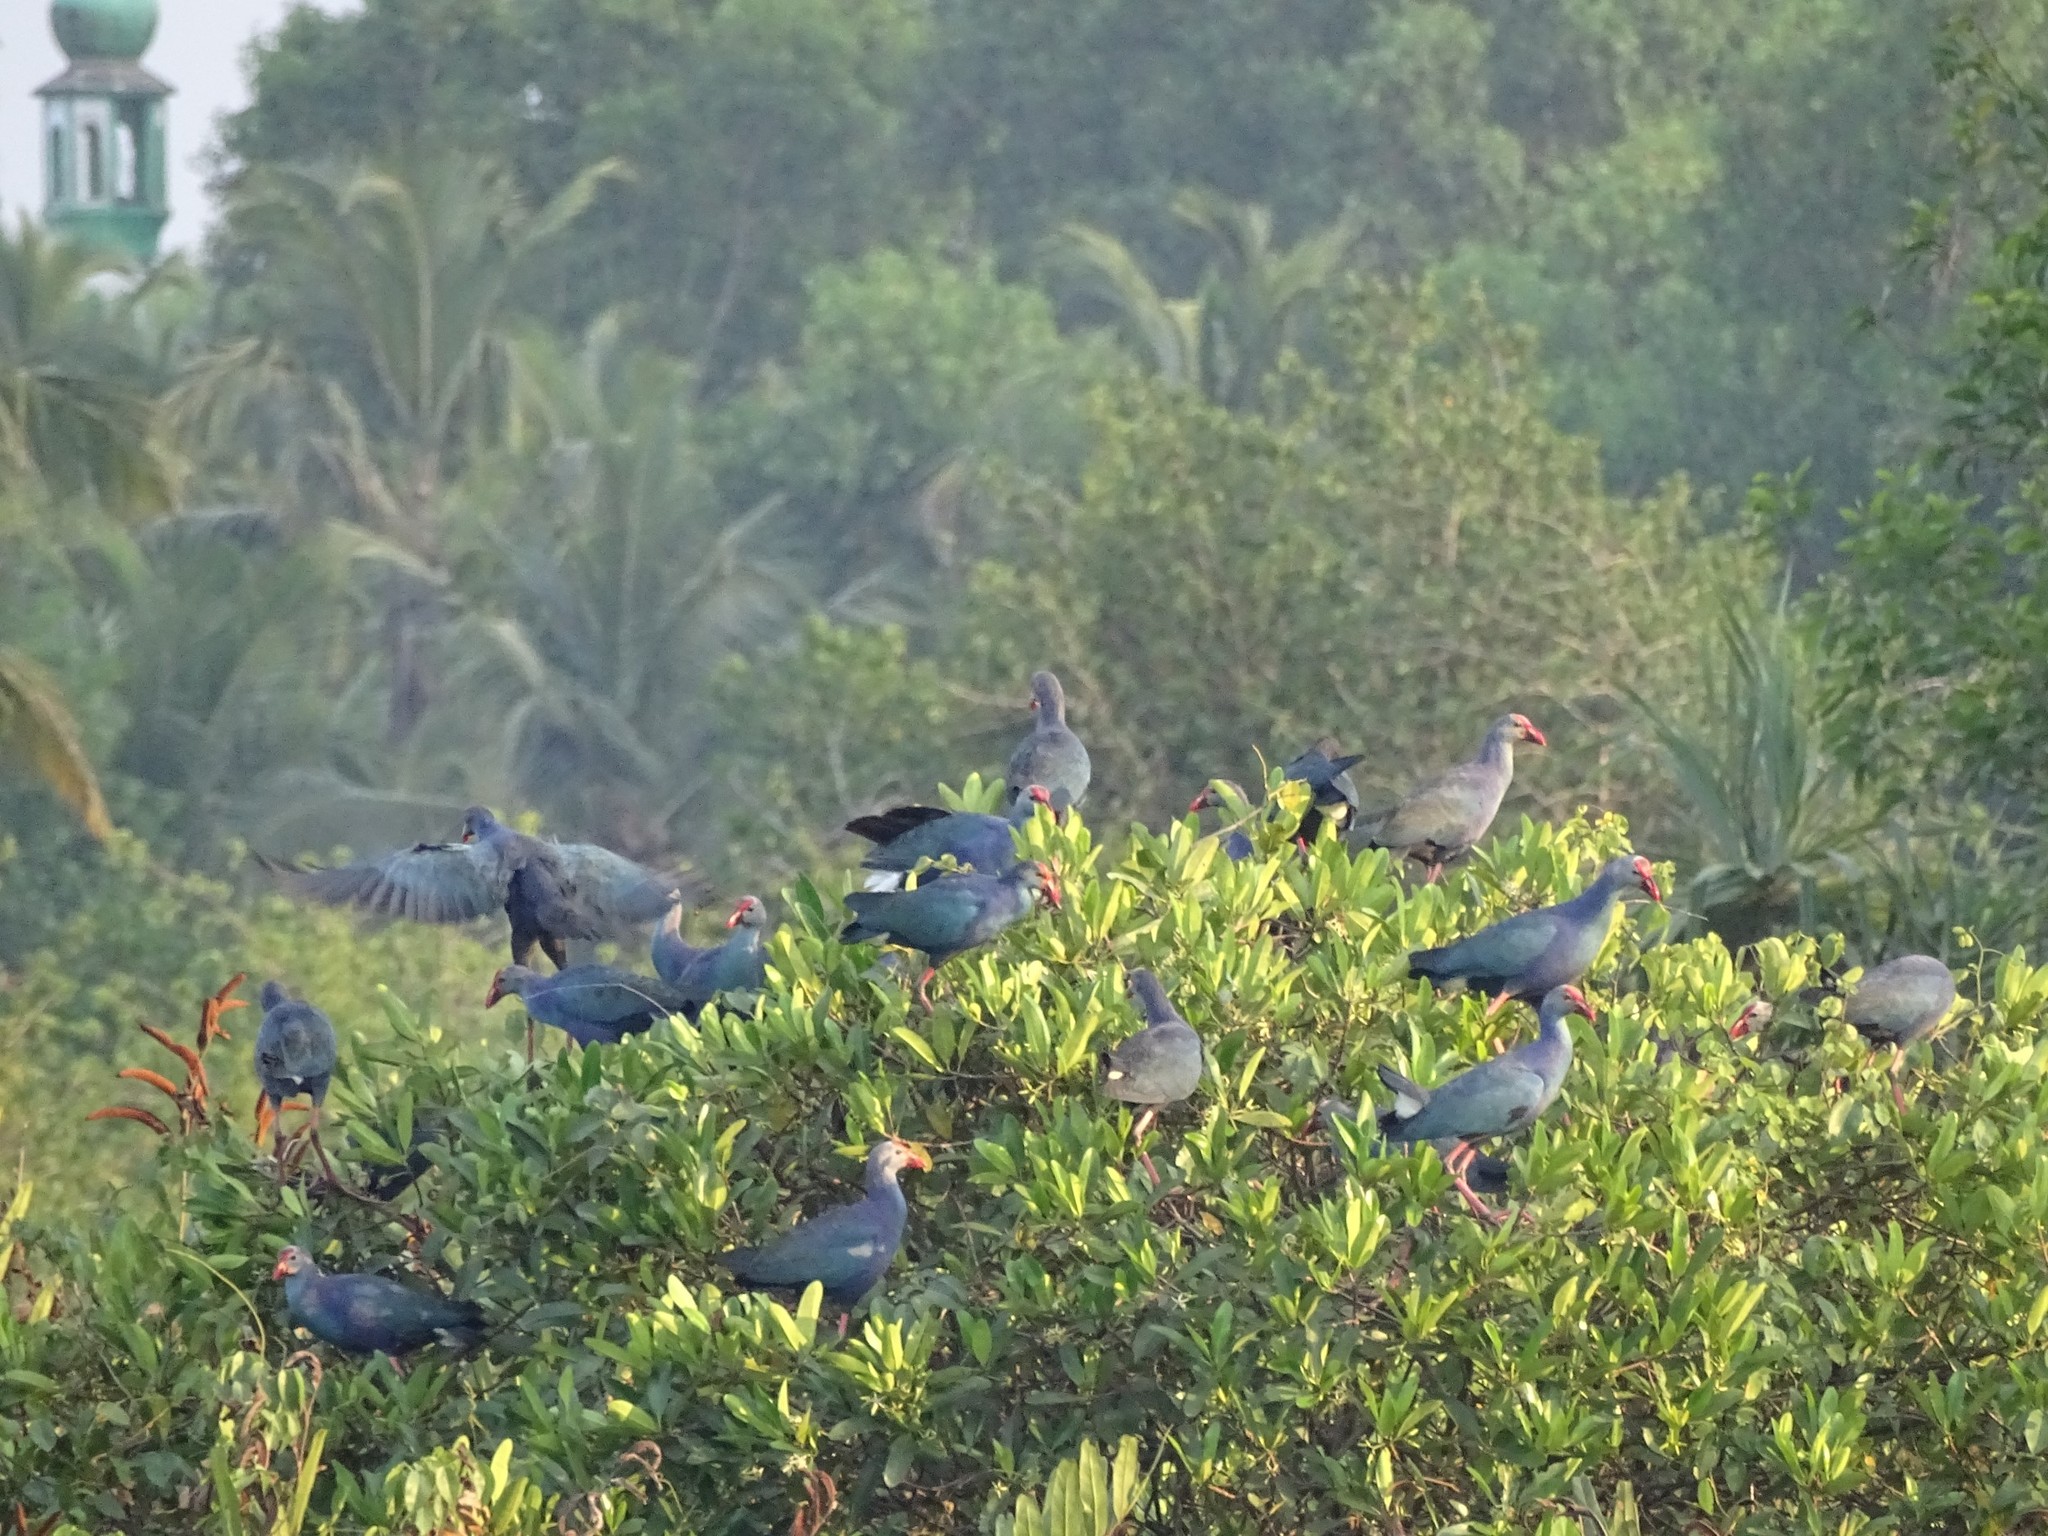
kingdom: Animalia
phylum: Chordata
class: Aves
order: Gruiformes
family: Rallidae
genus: Porphyrio
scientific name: Porphyrio porphyrio
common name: Purple swamphen
